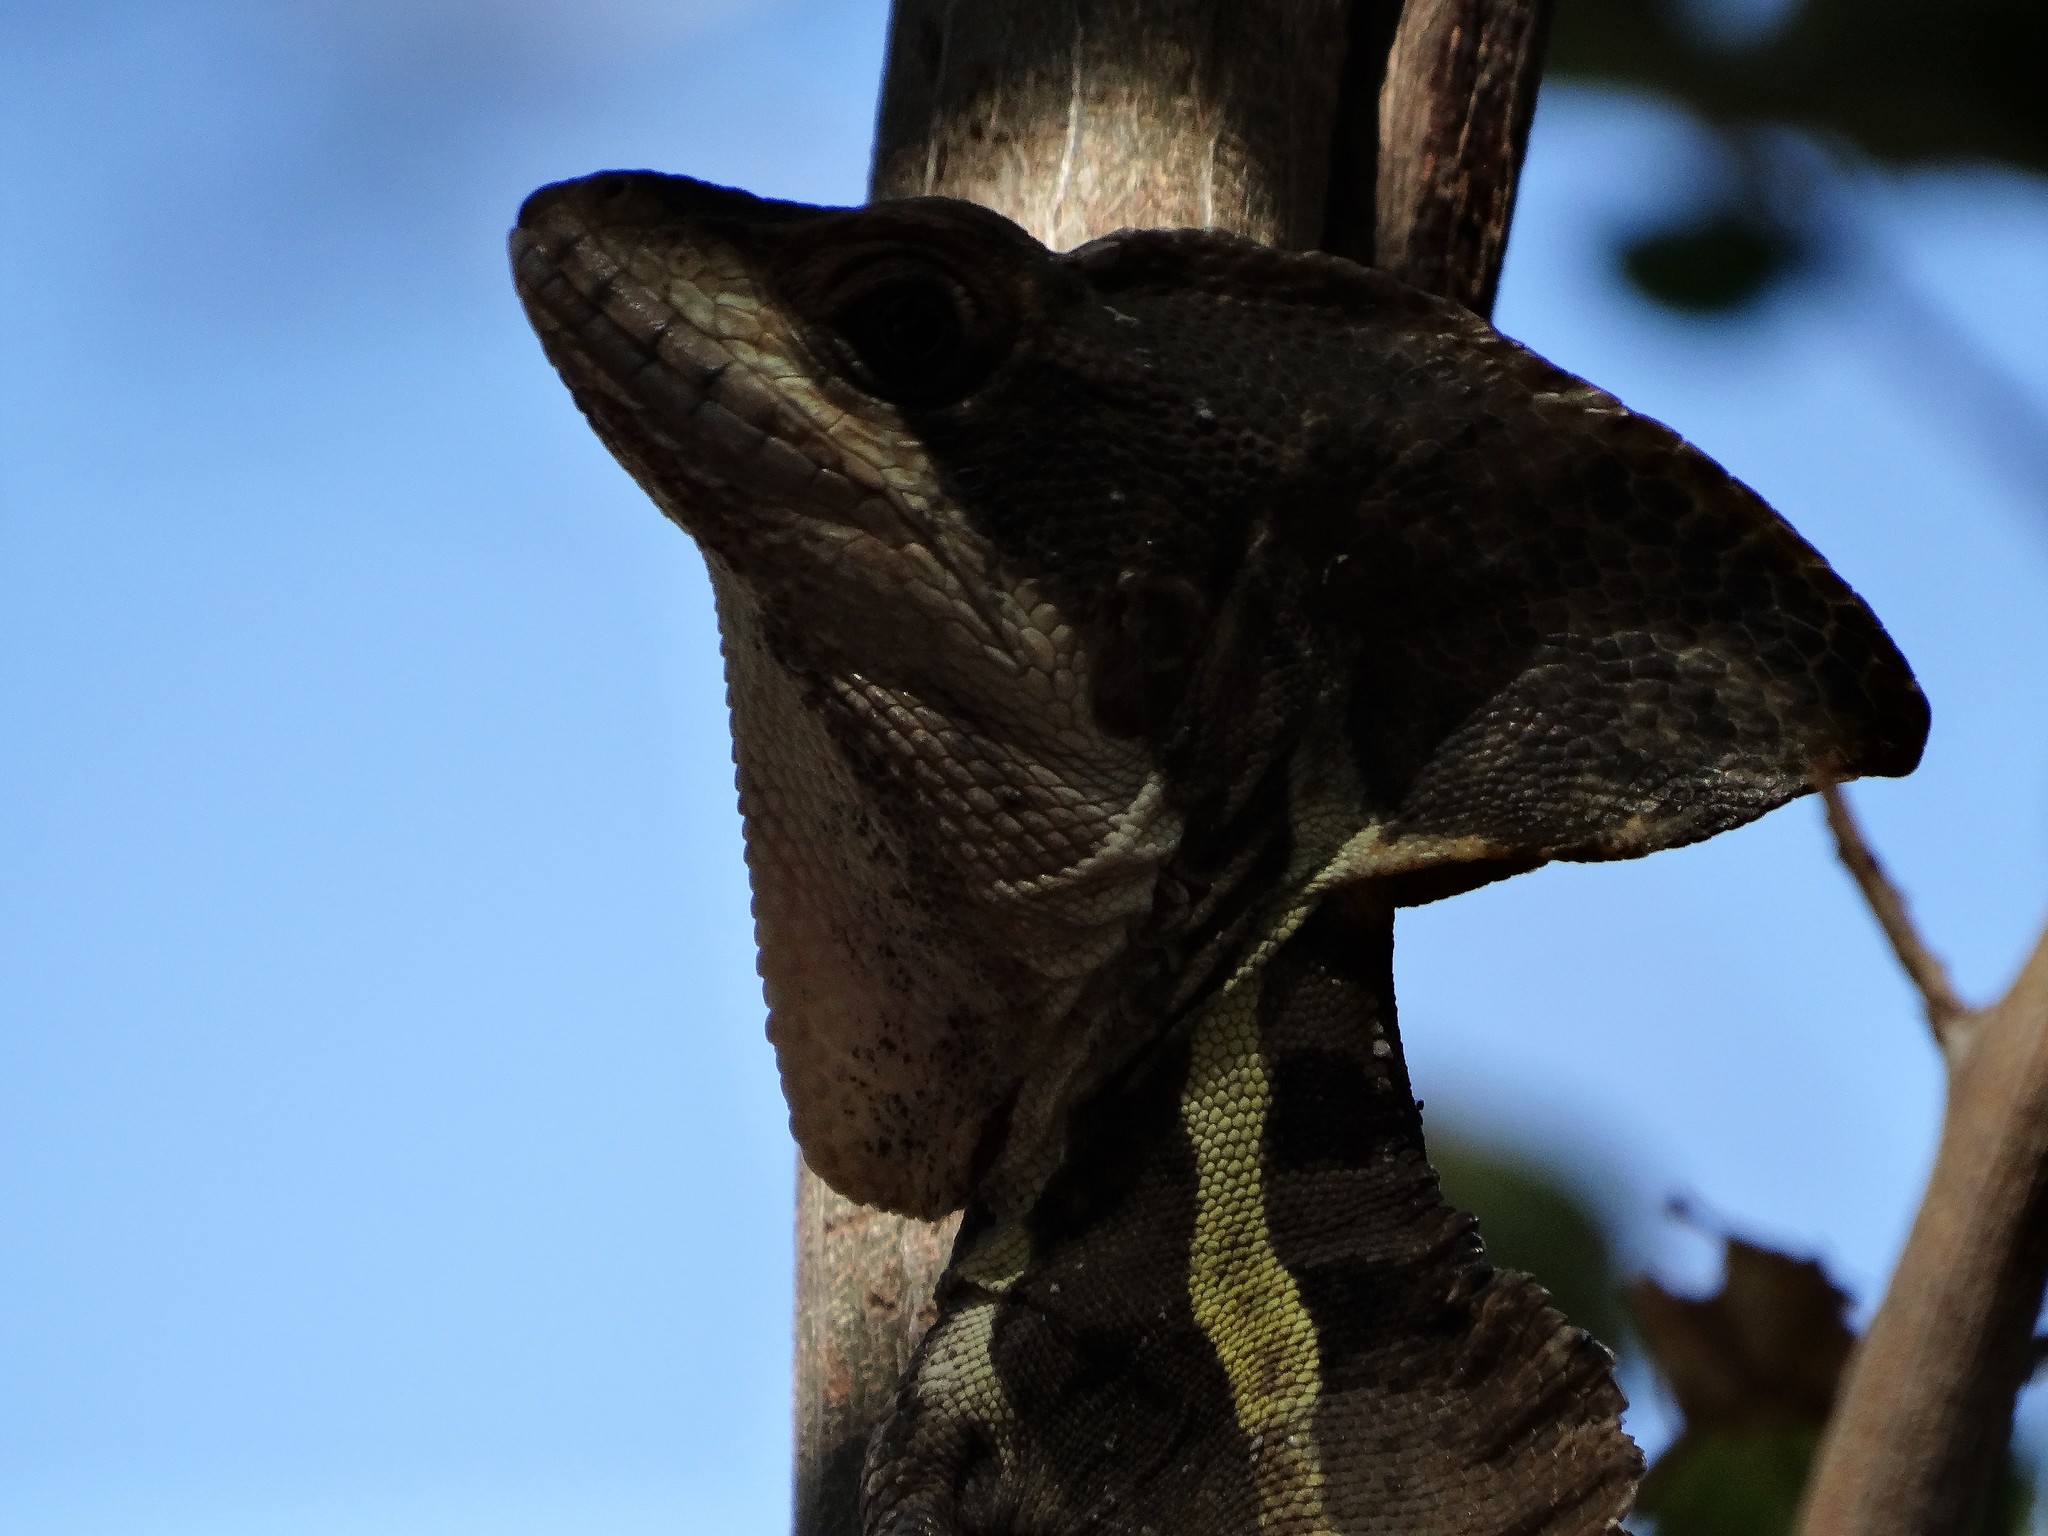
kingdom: Animalia
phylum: Chordata
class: Squamata
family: Corytophanidae
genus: Basiliscus
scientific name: Basiliscus vittatus
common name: Brown basilisk
